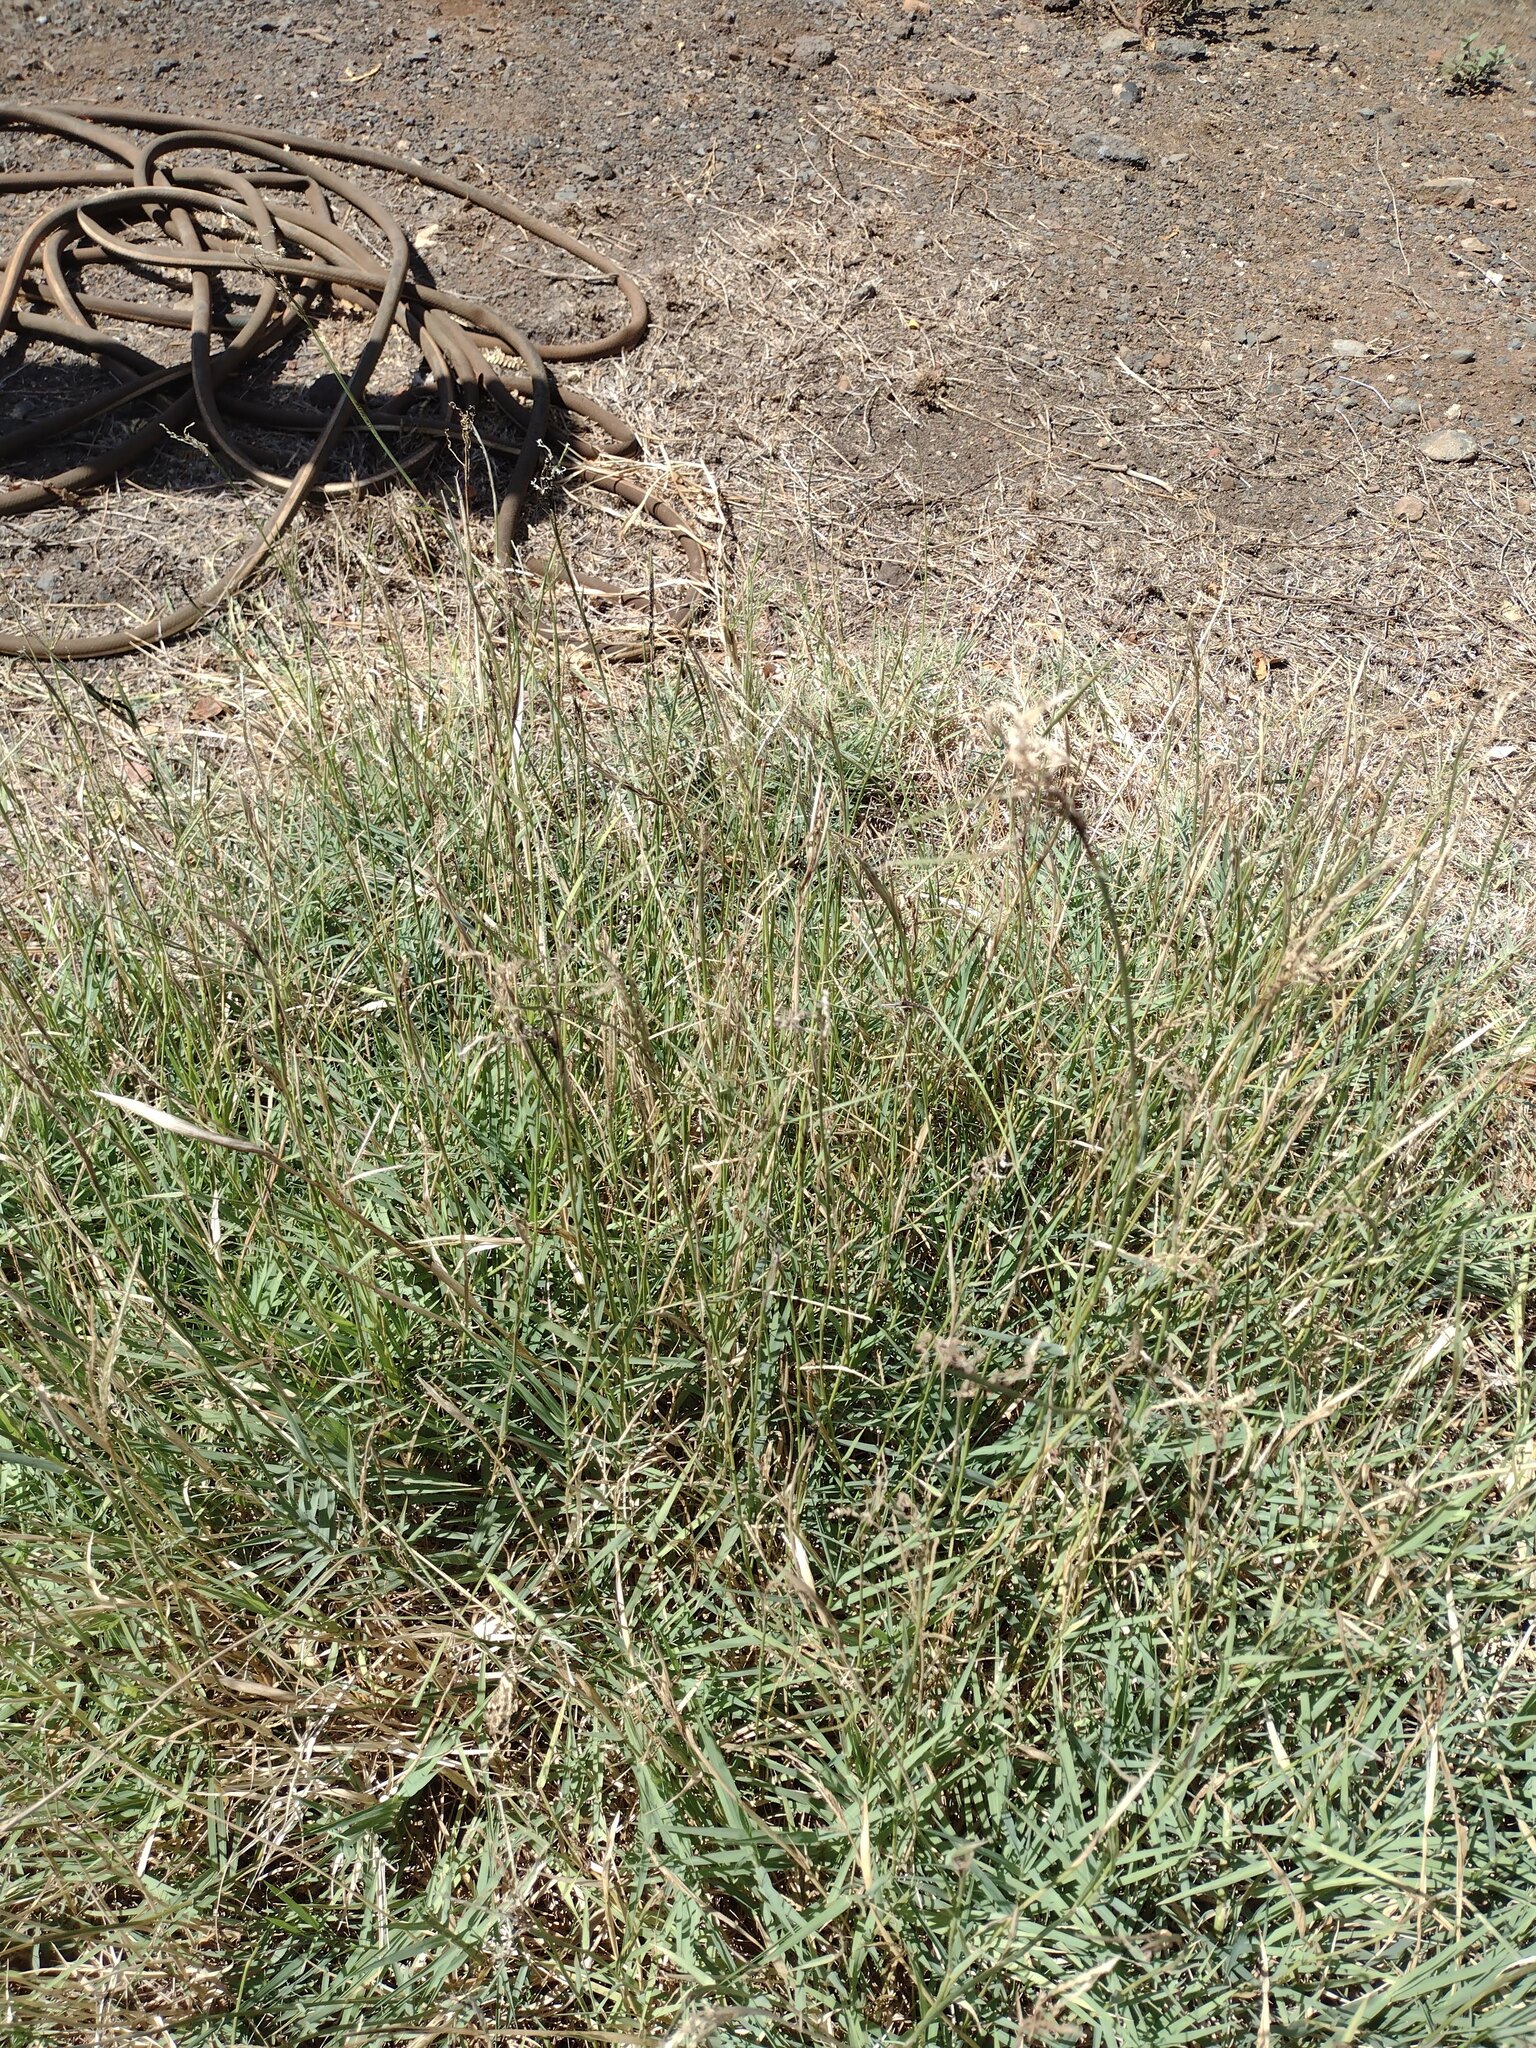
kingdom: Fungi
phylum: Basidiomycota
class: Ustilaginomycetes
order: Ustilaginales
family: Ustilaginaceae
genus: Ustilago
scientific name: Ustilago cynodontis
